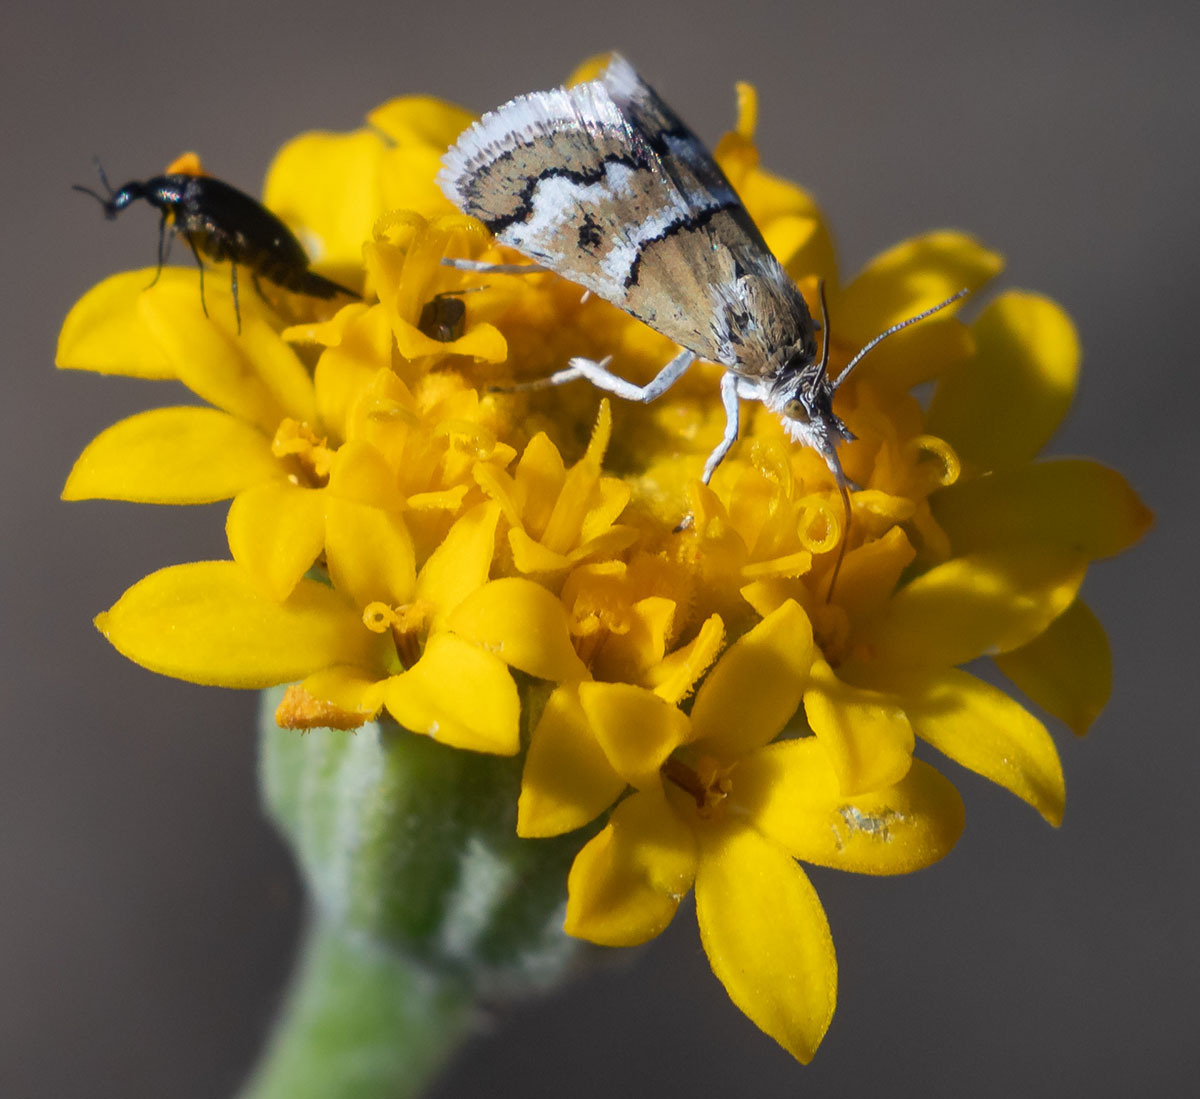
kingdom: Animalia
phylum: Arthropoda
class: Insecta
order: Lepidoptera
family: Crambidae
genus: Nannobotys
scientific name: Nannobotys commortalis
